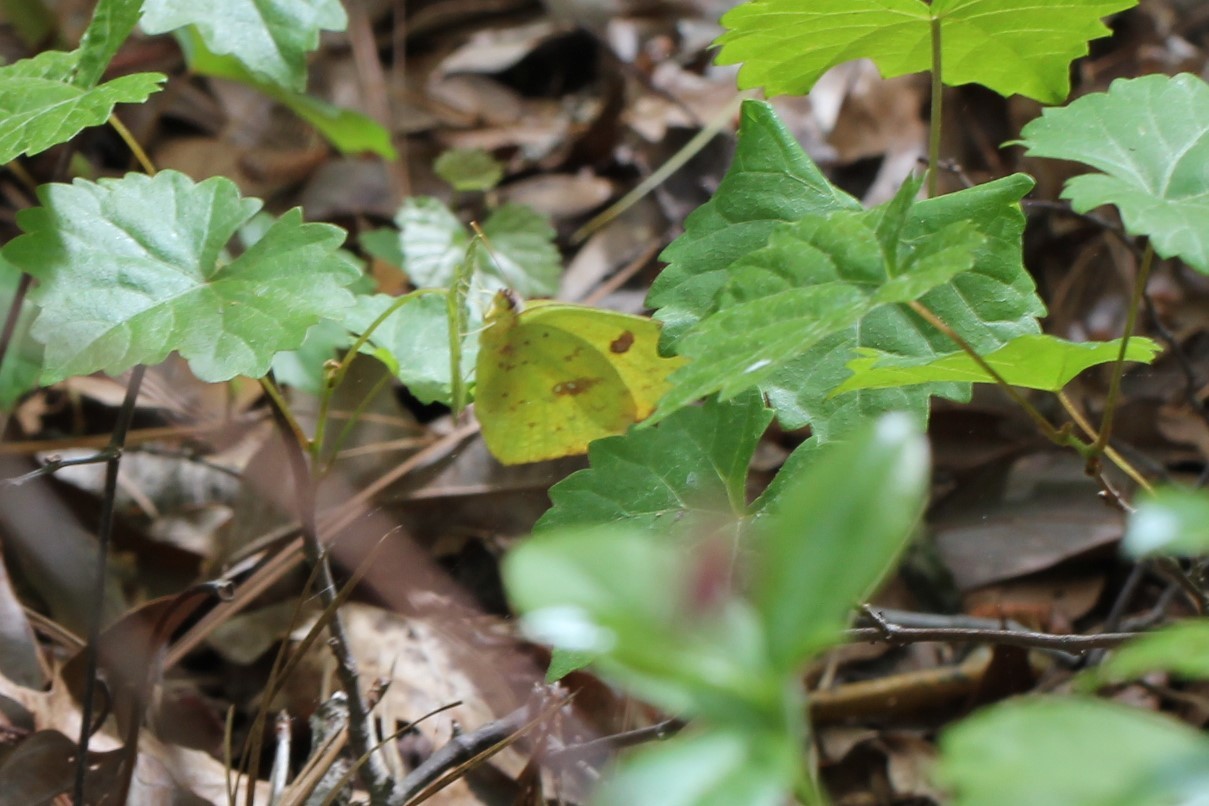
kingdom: Animalia
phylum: Arthropoda
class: Insecta
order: Lepidoptera
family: Pieridae
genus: Phoebis
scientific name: Phoebis sennae
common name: Cloudless sulphur
